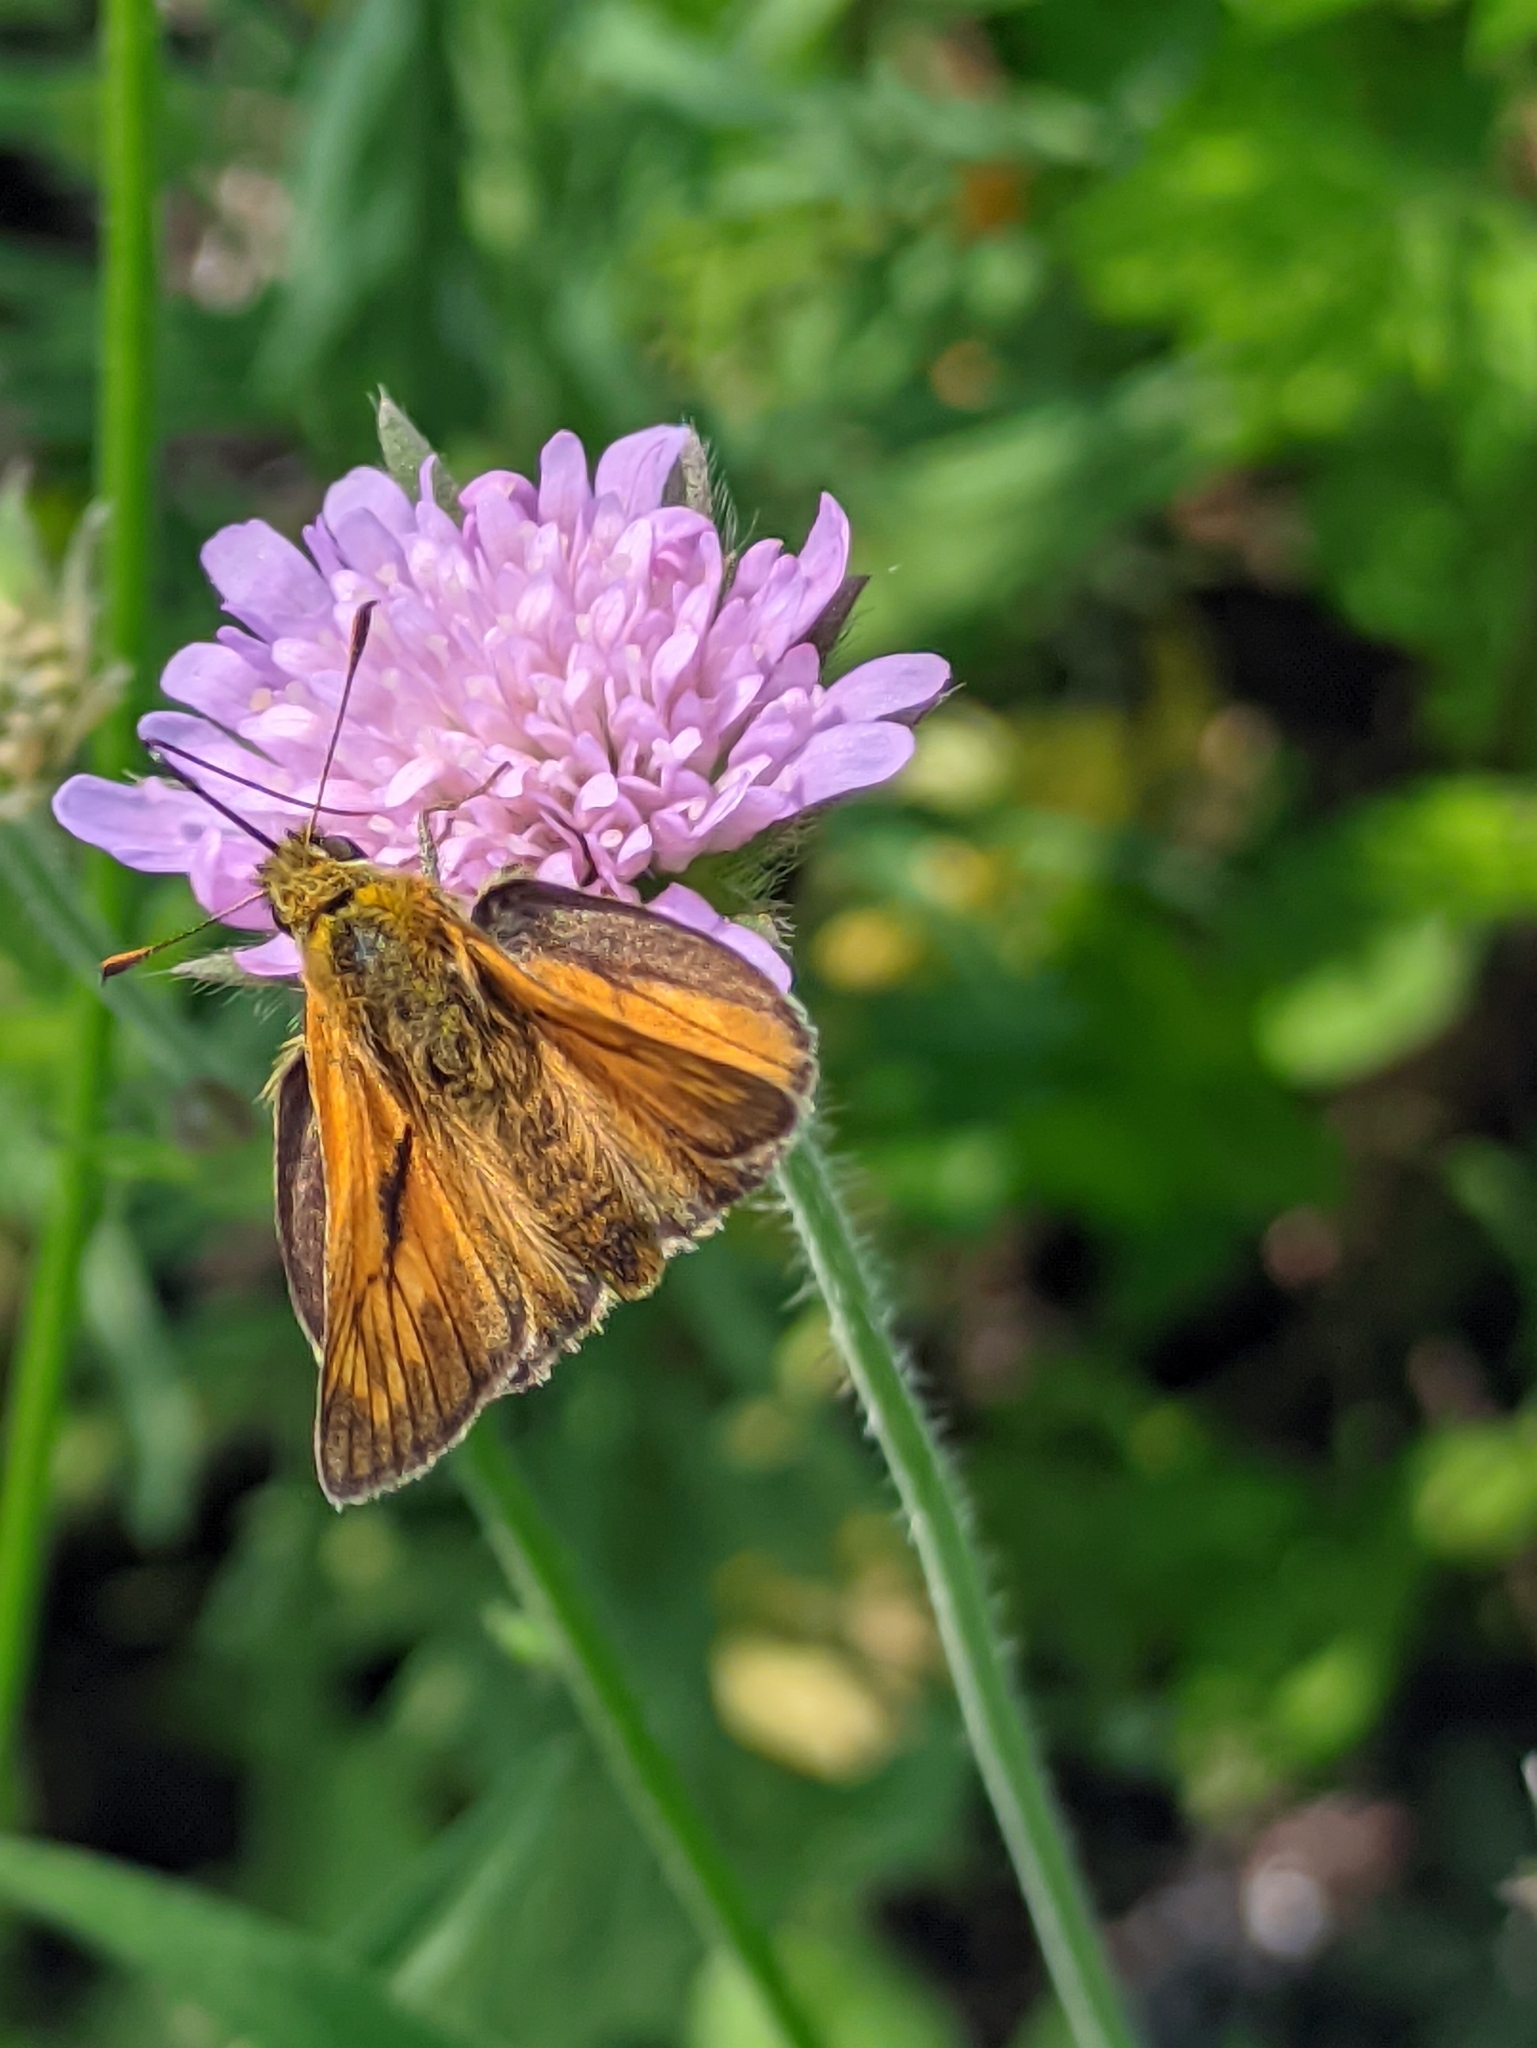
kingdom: Animalia
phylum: Arthropoda
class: Insecta
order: Lepidoptera
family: Hesperiidae
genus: Ochlodes
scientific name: Ochlodes venata
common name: Large skipper
